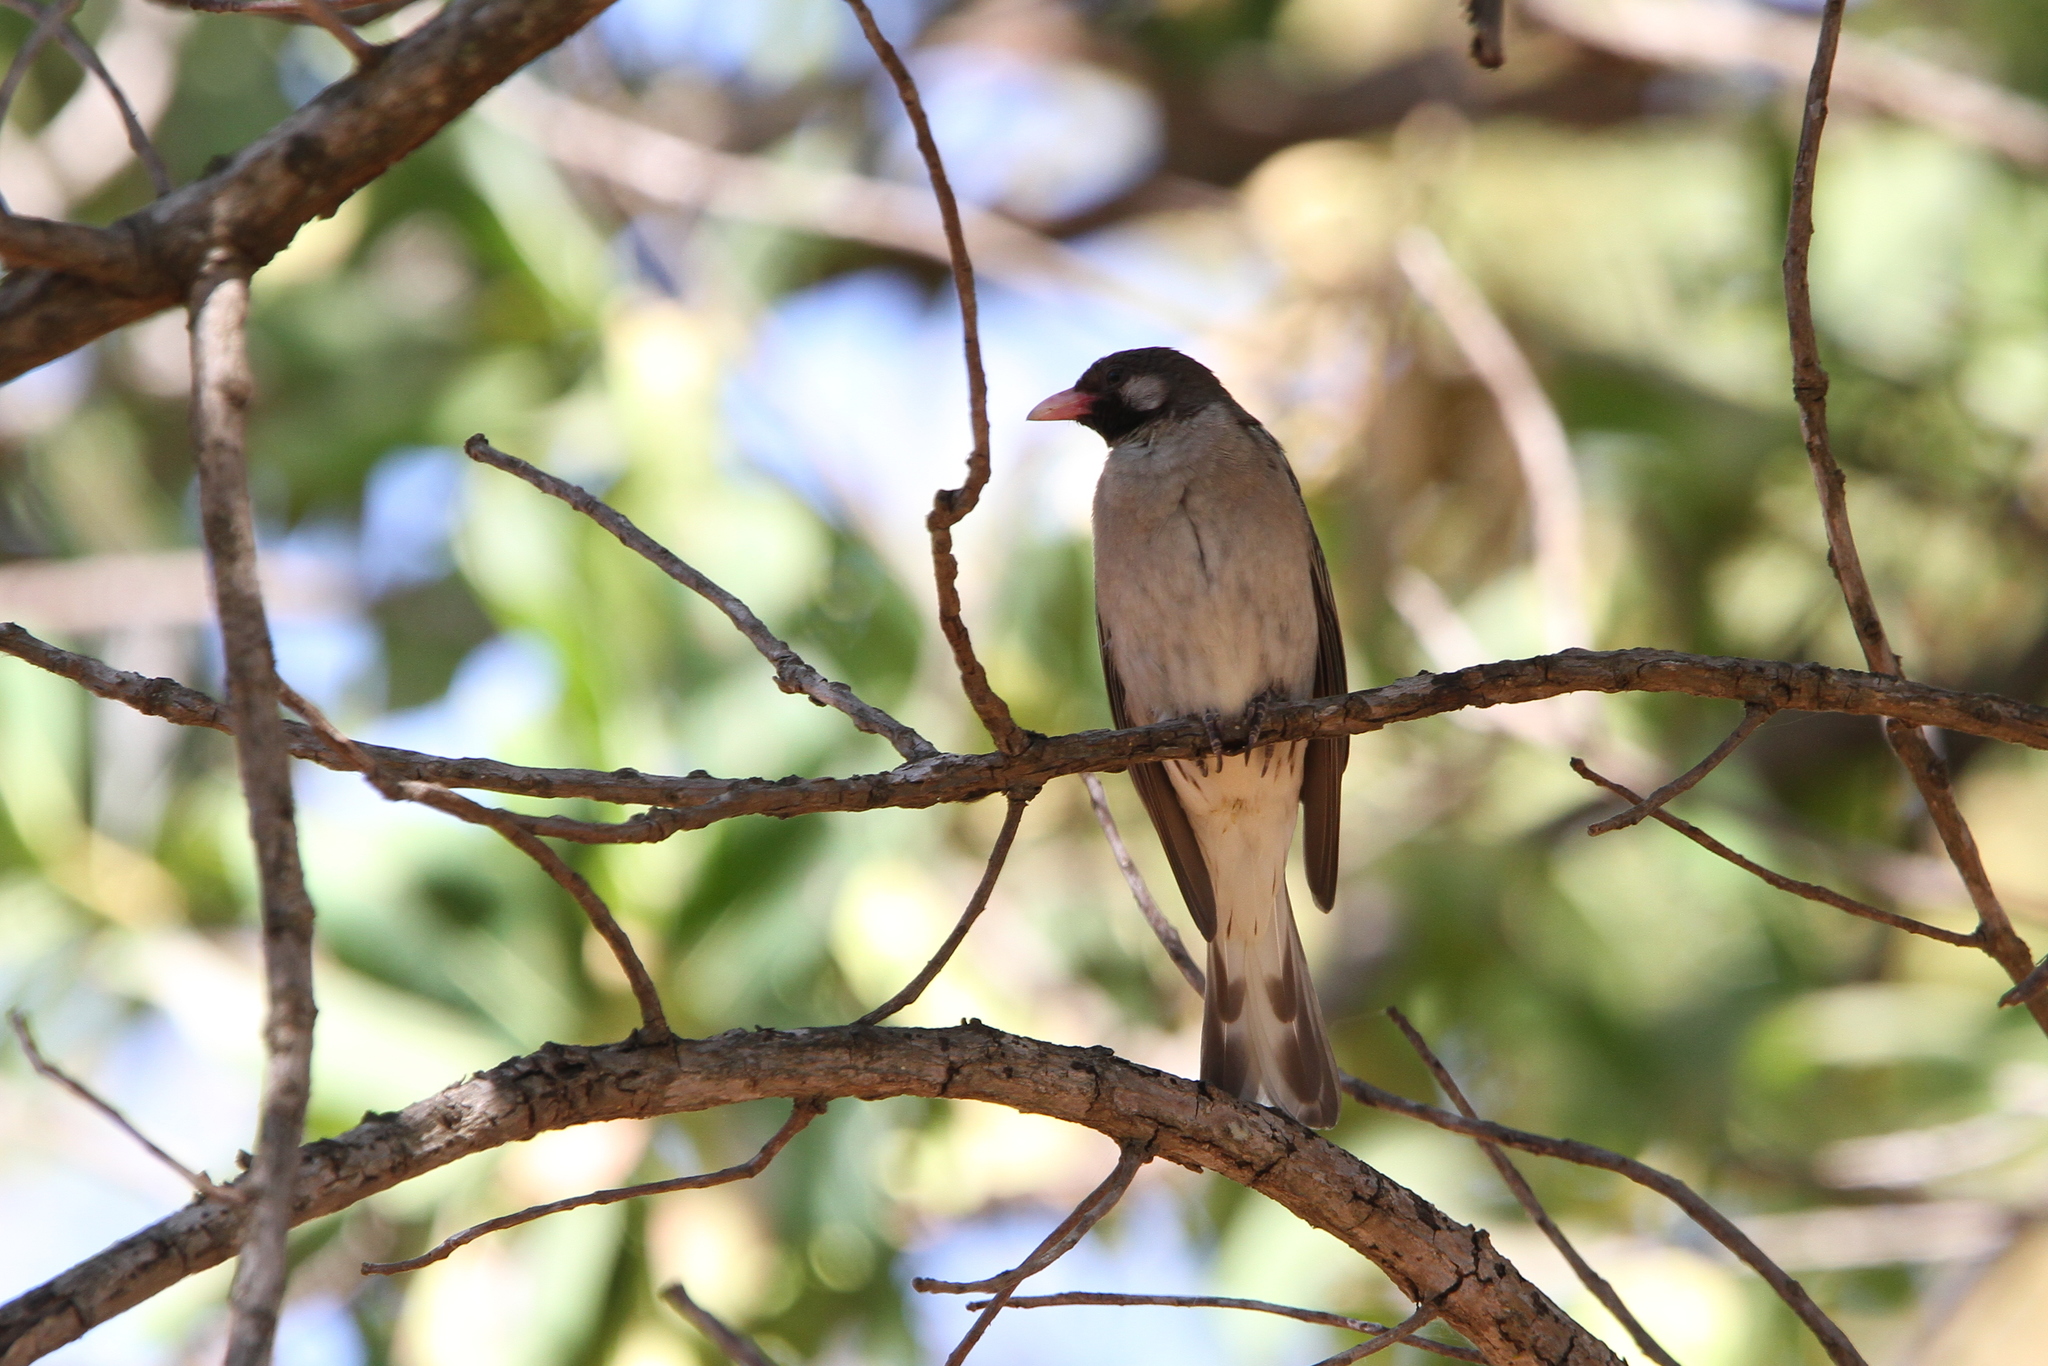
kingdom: Animalia
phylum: Chordata
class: Aves
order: Piciformes
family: Indicatoridae
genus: Indicator
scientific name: Indicator indicator
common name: Greater honeyguide
